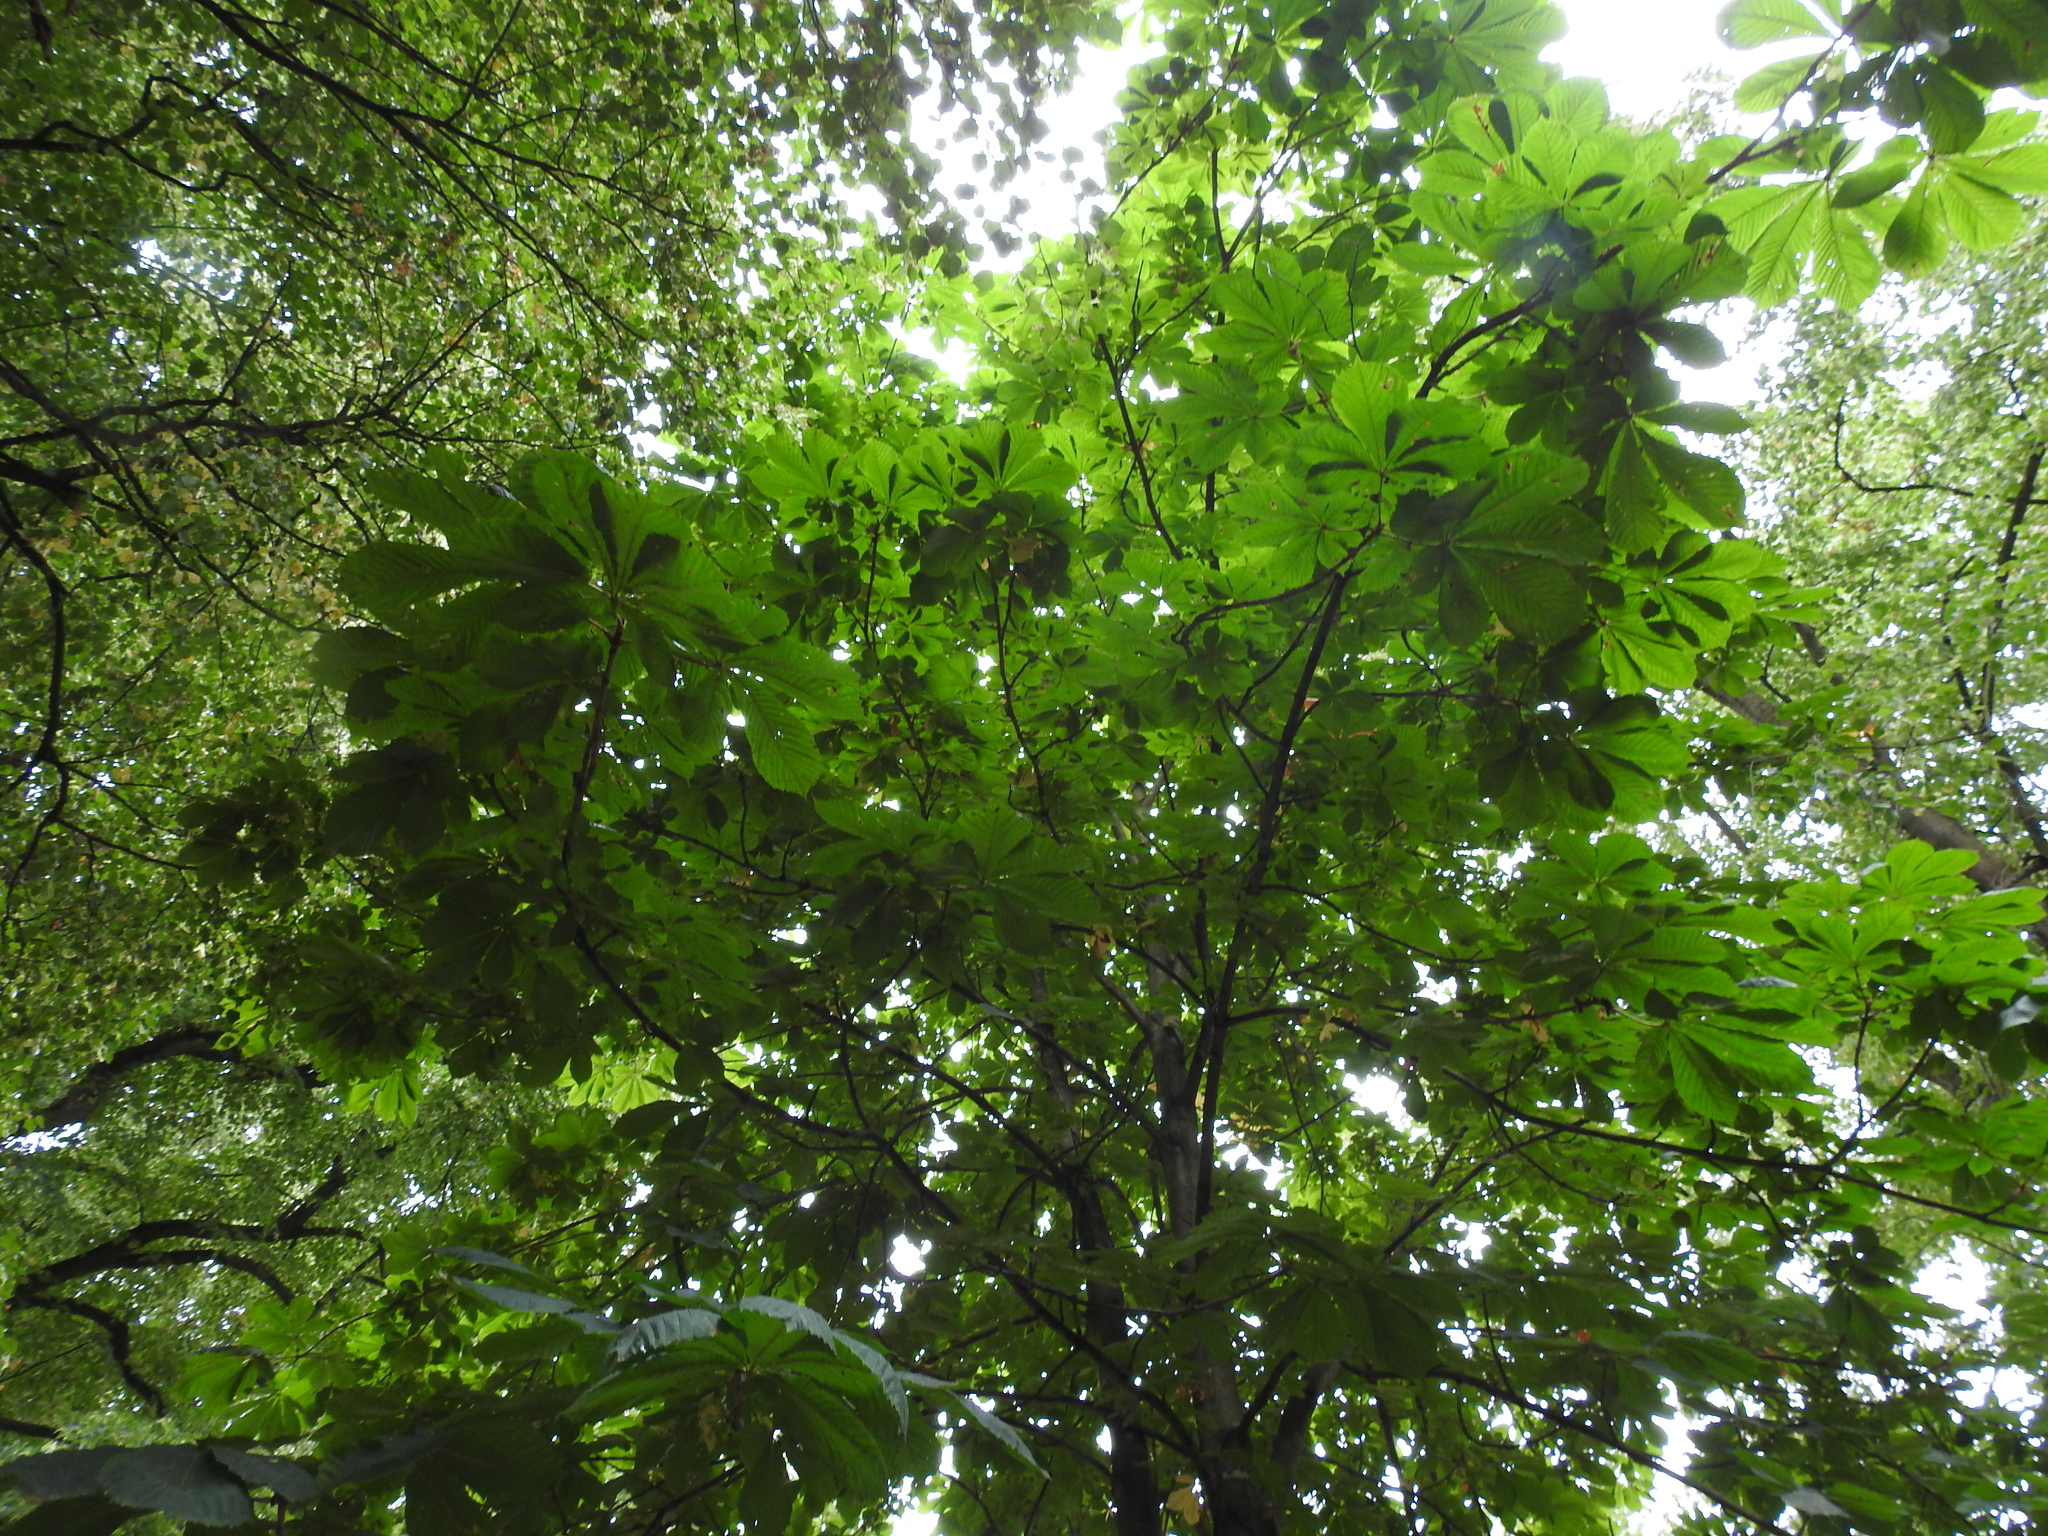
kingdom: Plantae
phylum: Tracheophyta
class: Magnoliopsida
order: Sapindales
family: Sapindaceae
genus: Aesculus
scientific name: Aesculus hippocastanum
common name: Horse-chestnut
